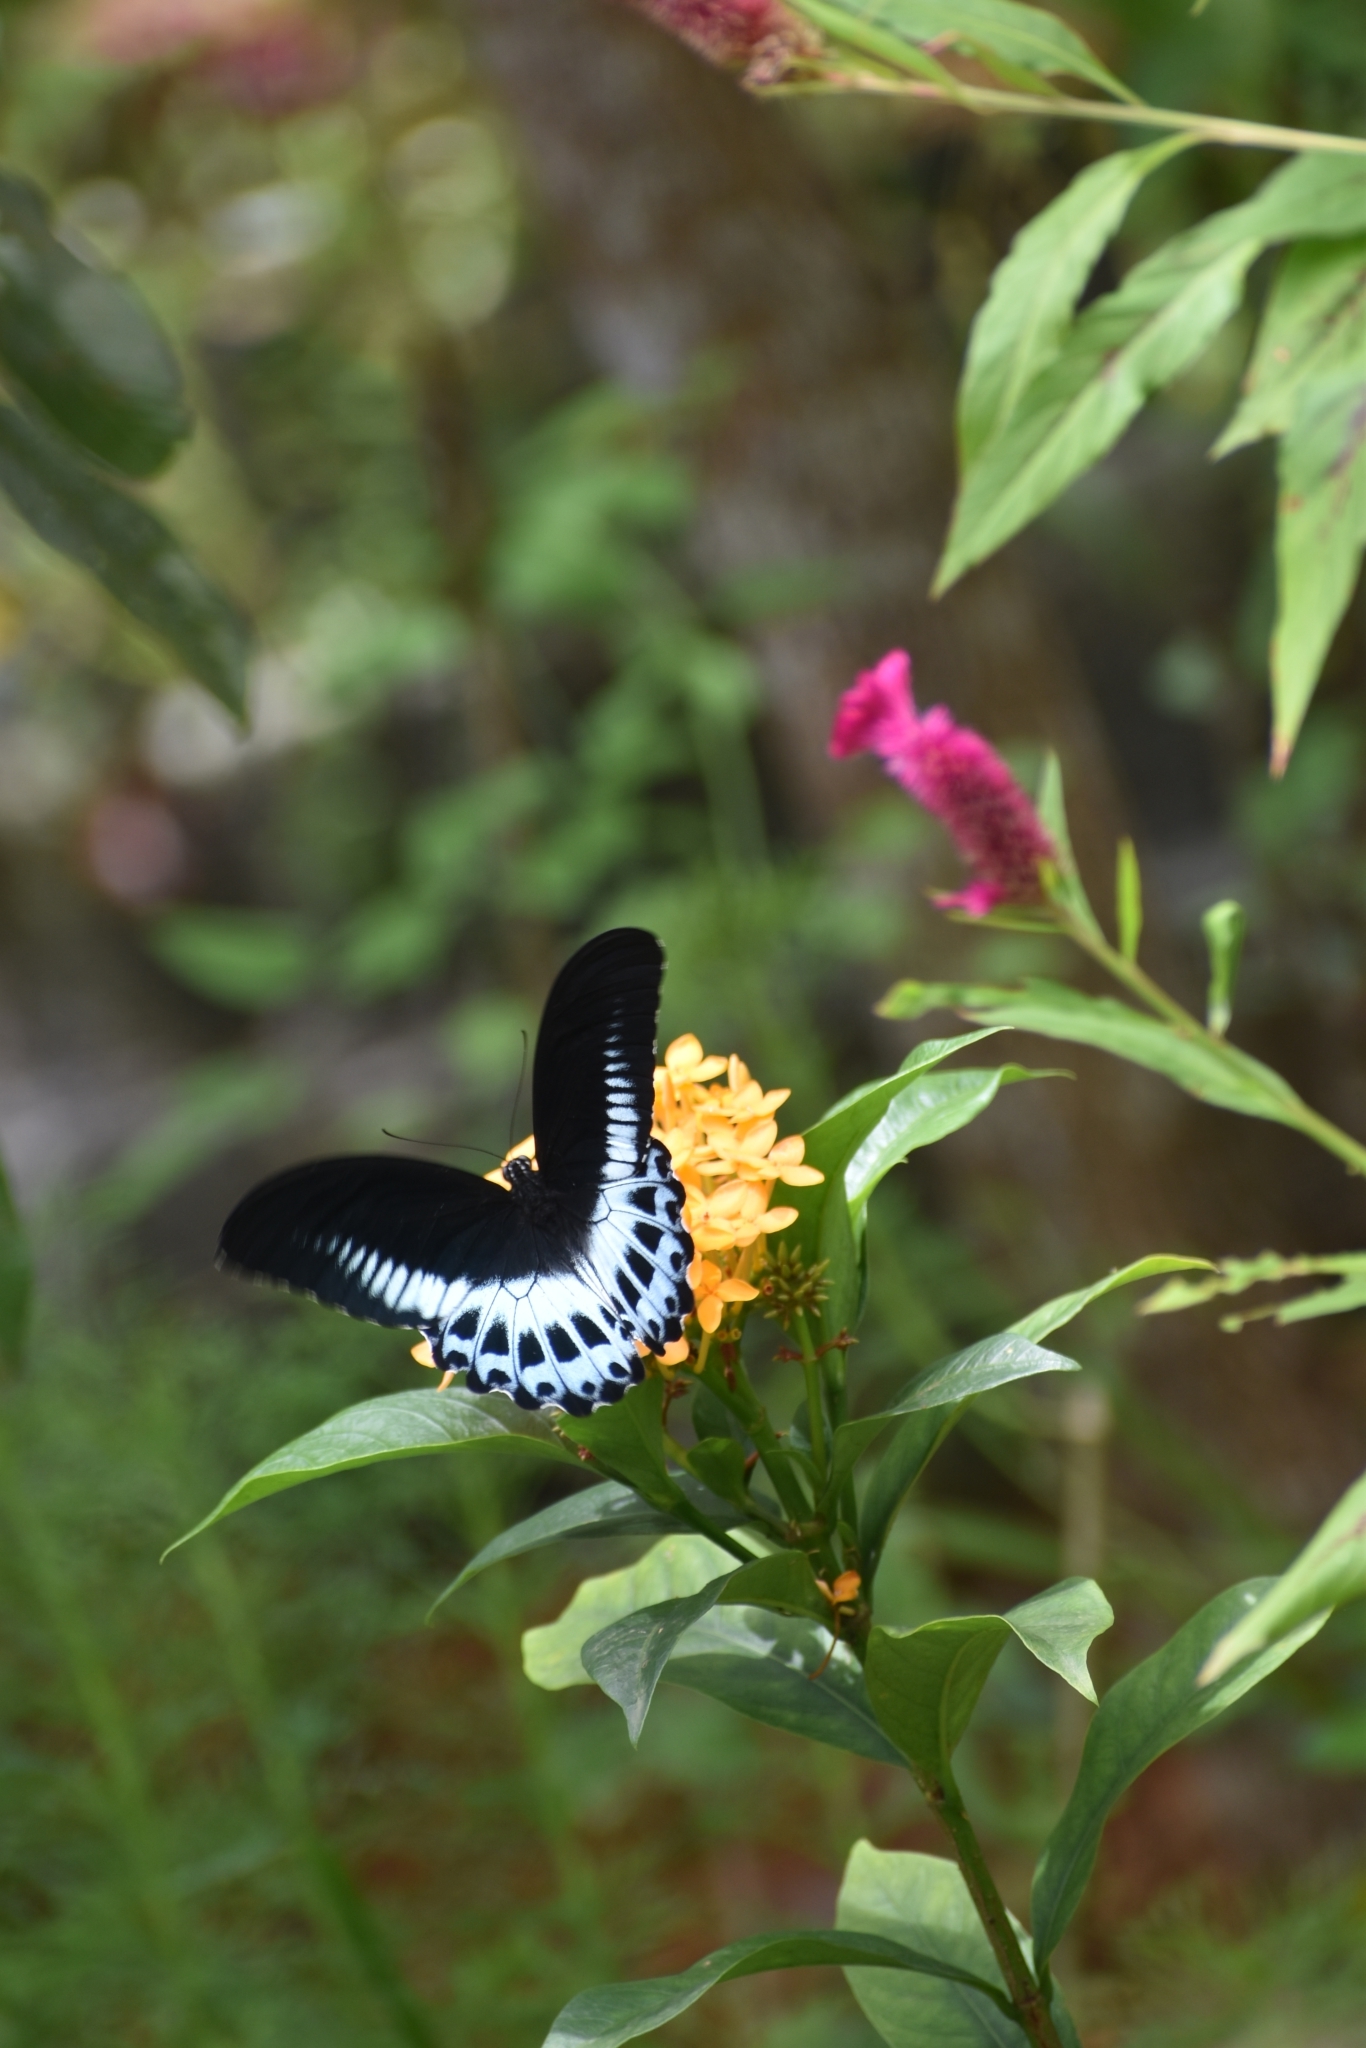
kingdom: Animalia
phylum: Arthropoda
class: Insecta
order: Lepidoptera
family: Papilionidae
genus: Papilio
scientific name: Papilio memnon
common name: Great mormon
